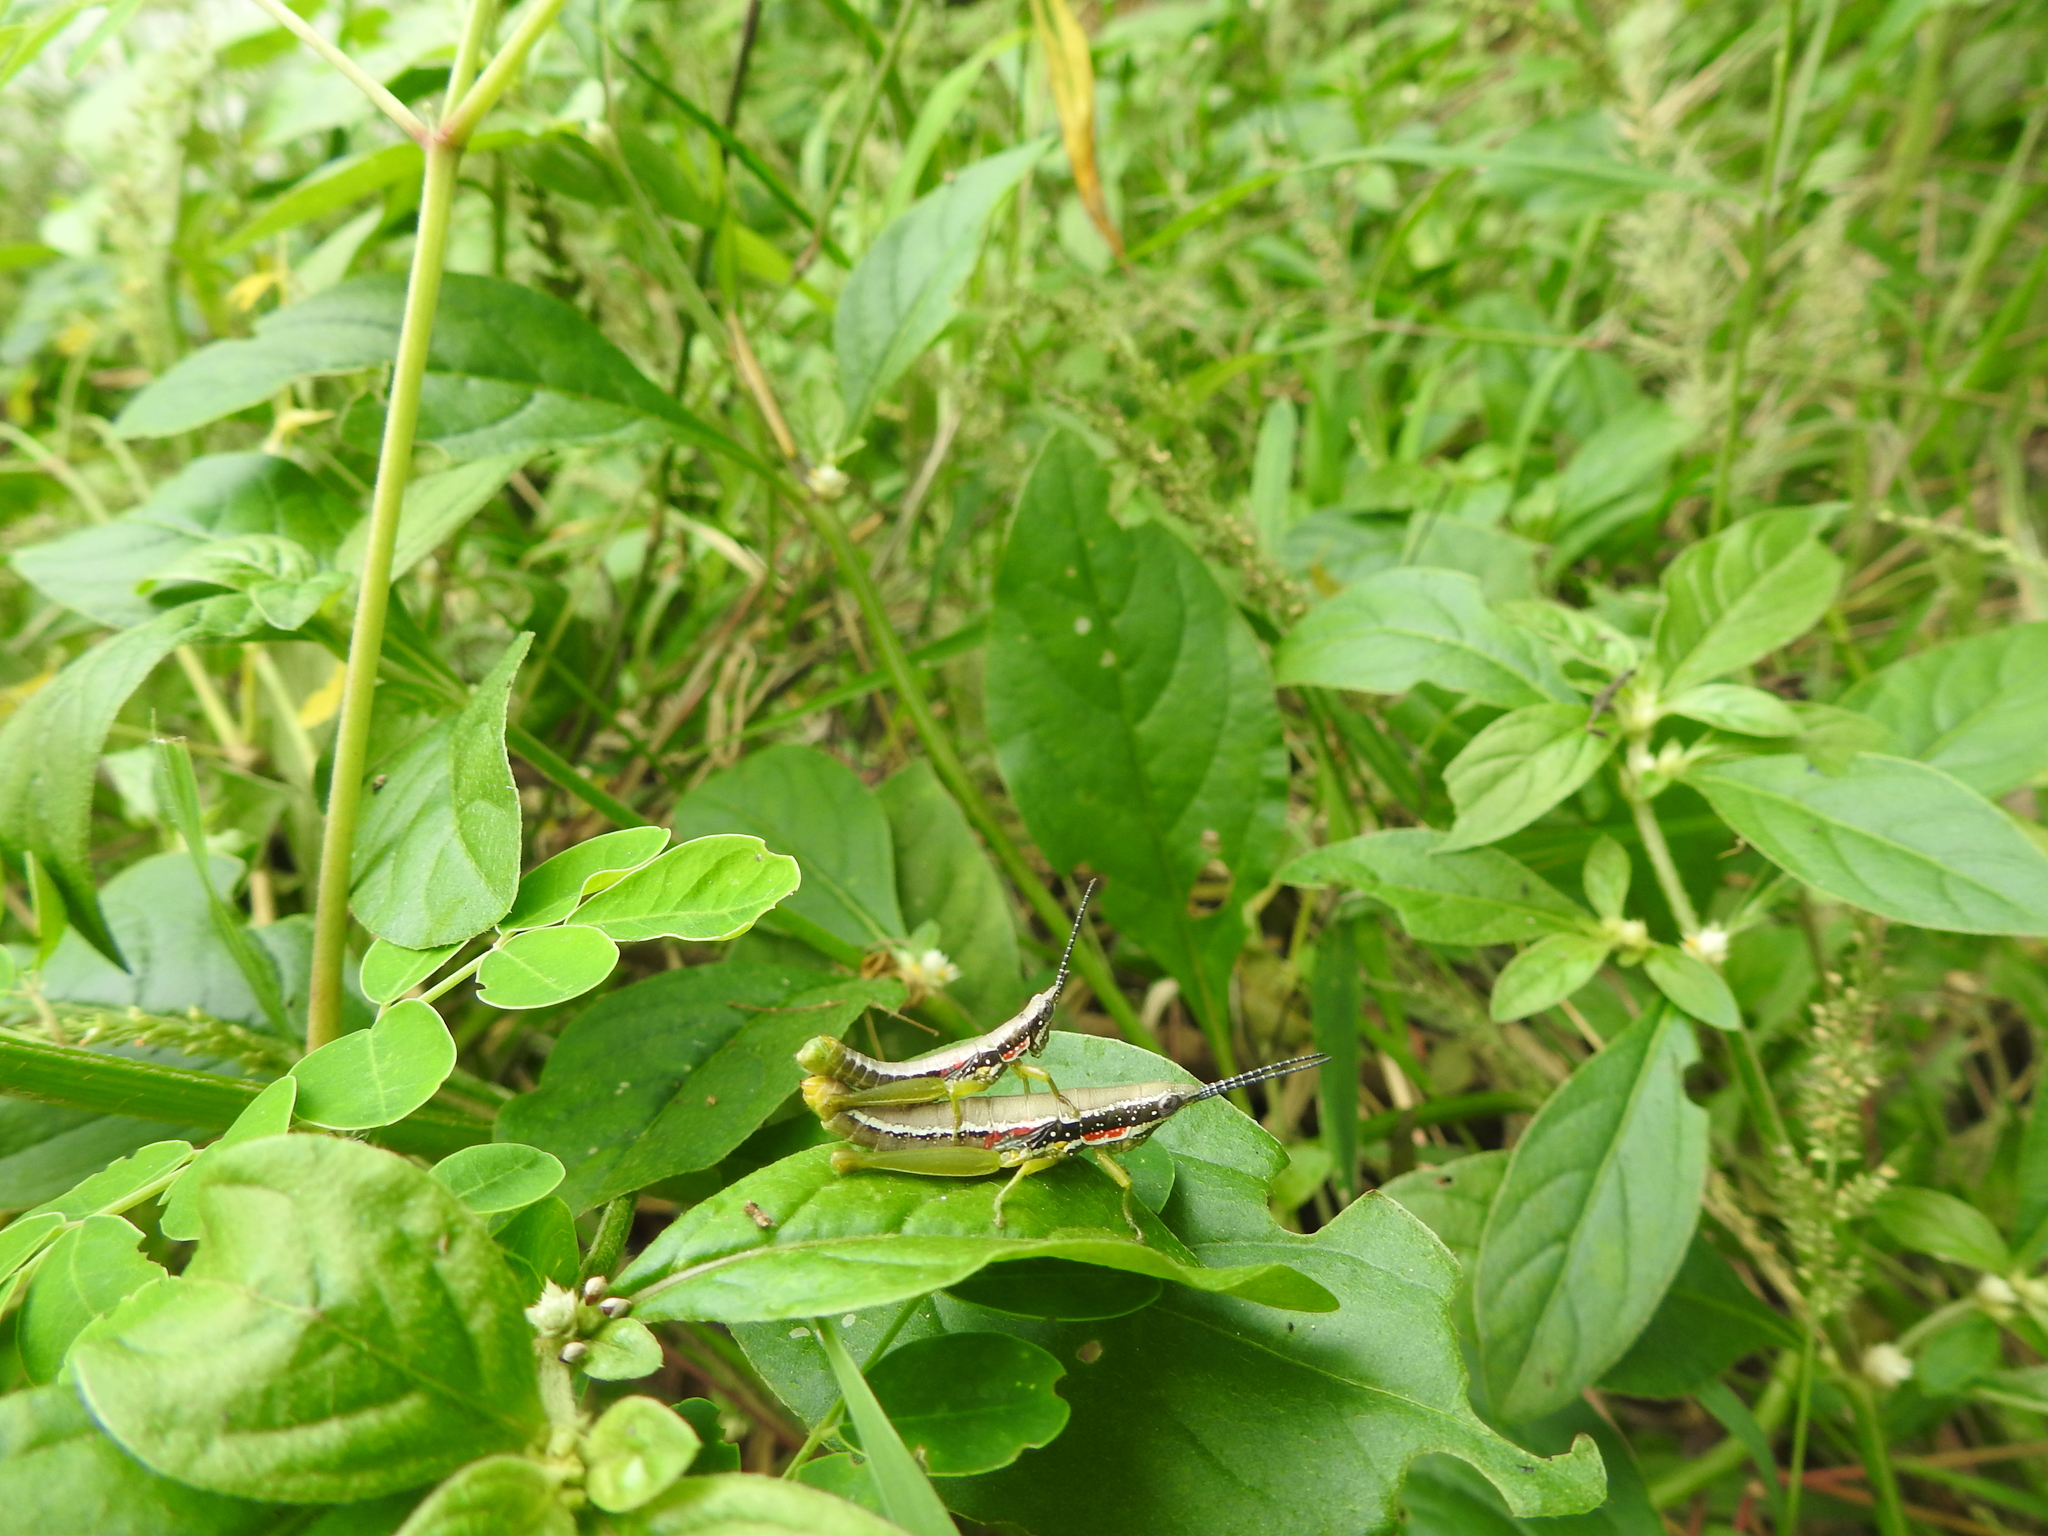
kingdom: Animalia
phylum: Arthropoda
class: Insecta
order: Orthoptera
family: Pyrgomorphidae
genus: Neorthacris
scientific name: Neorthacris simulans
